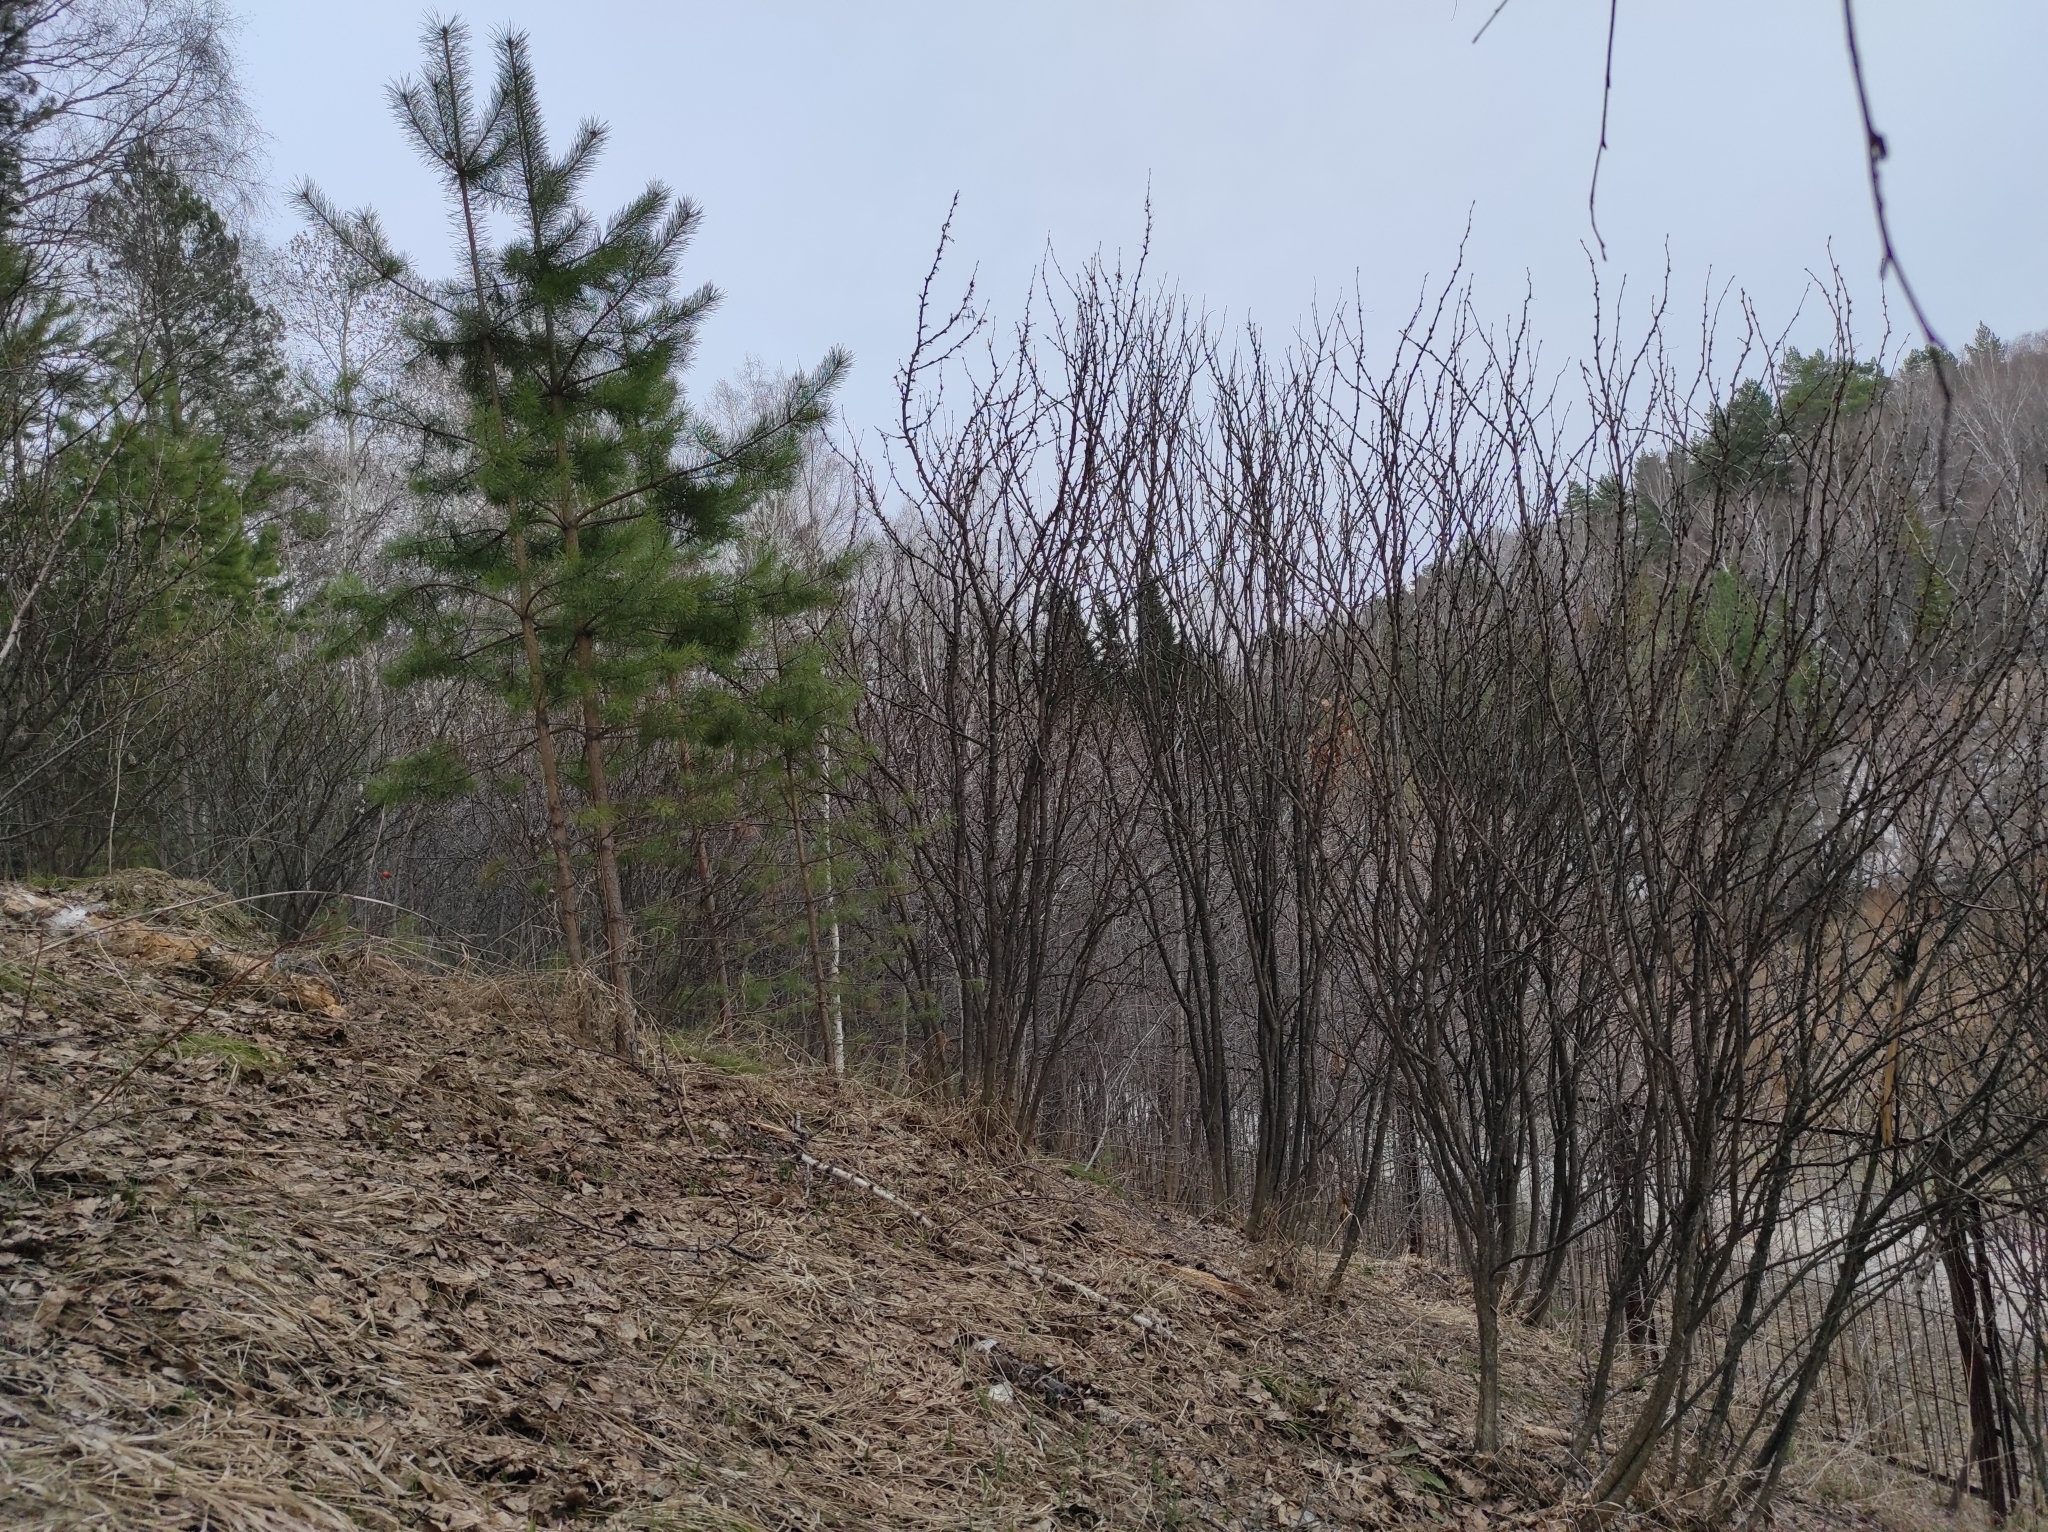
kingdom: Plantae
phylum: Tracheophyta
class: Pinopsida
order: Pinales
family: Pinaceae
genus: Pinus
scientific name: Pinus sylvestris
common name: Scots pine
